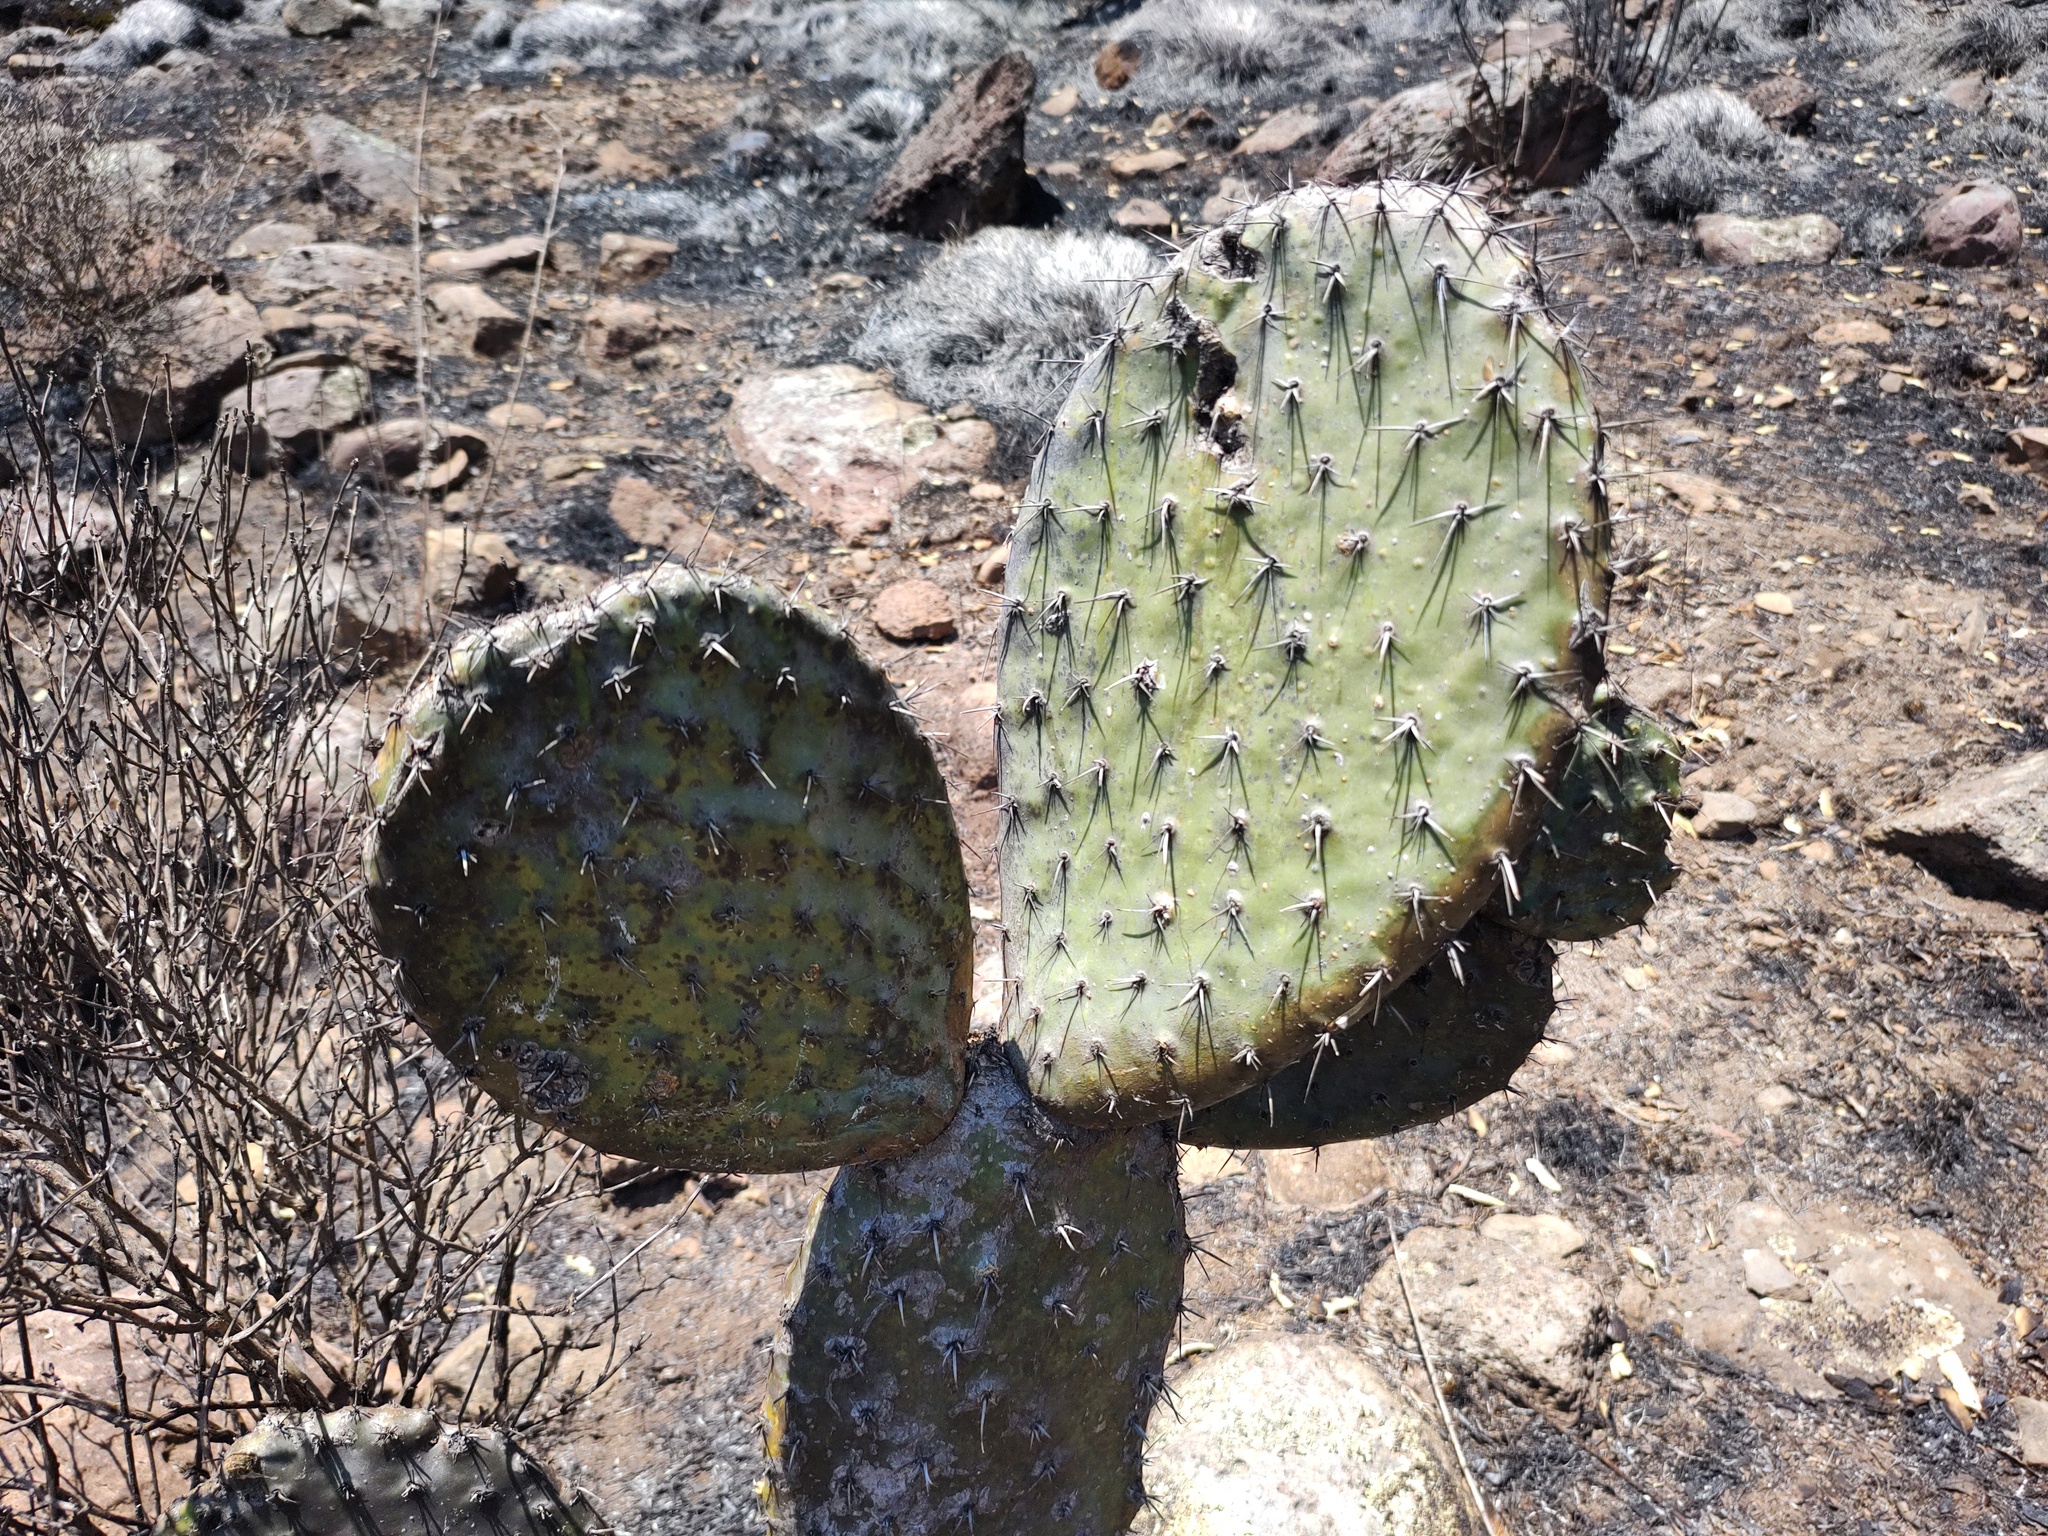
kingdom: Plantae
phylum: Tracheophyta
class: Magnoliopsida
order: Caryophyllales
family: Cactaceae
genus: Opuntia
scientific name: Opuntia streptacantha
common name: Gracemere-pear
